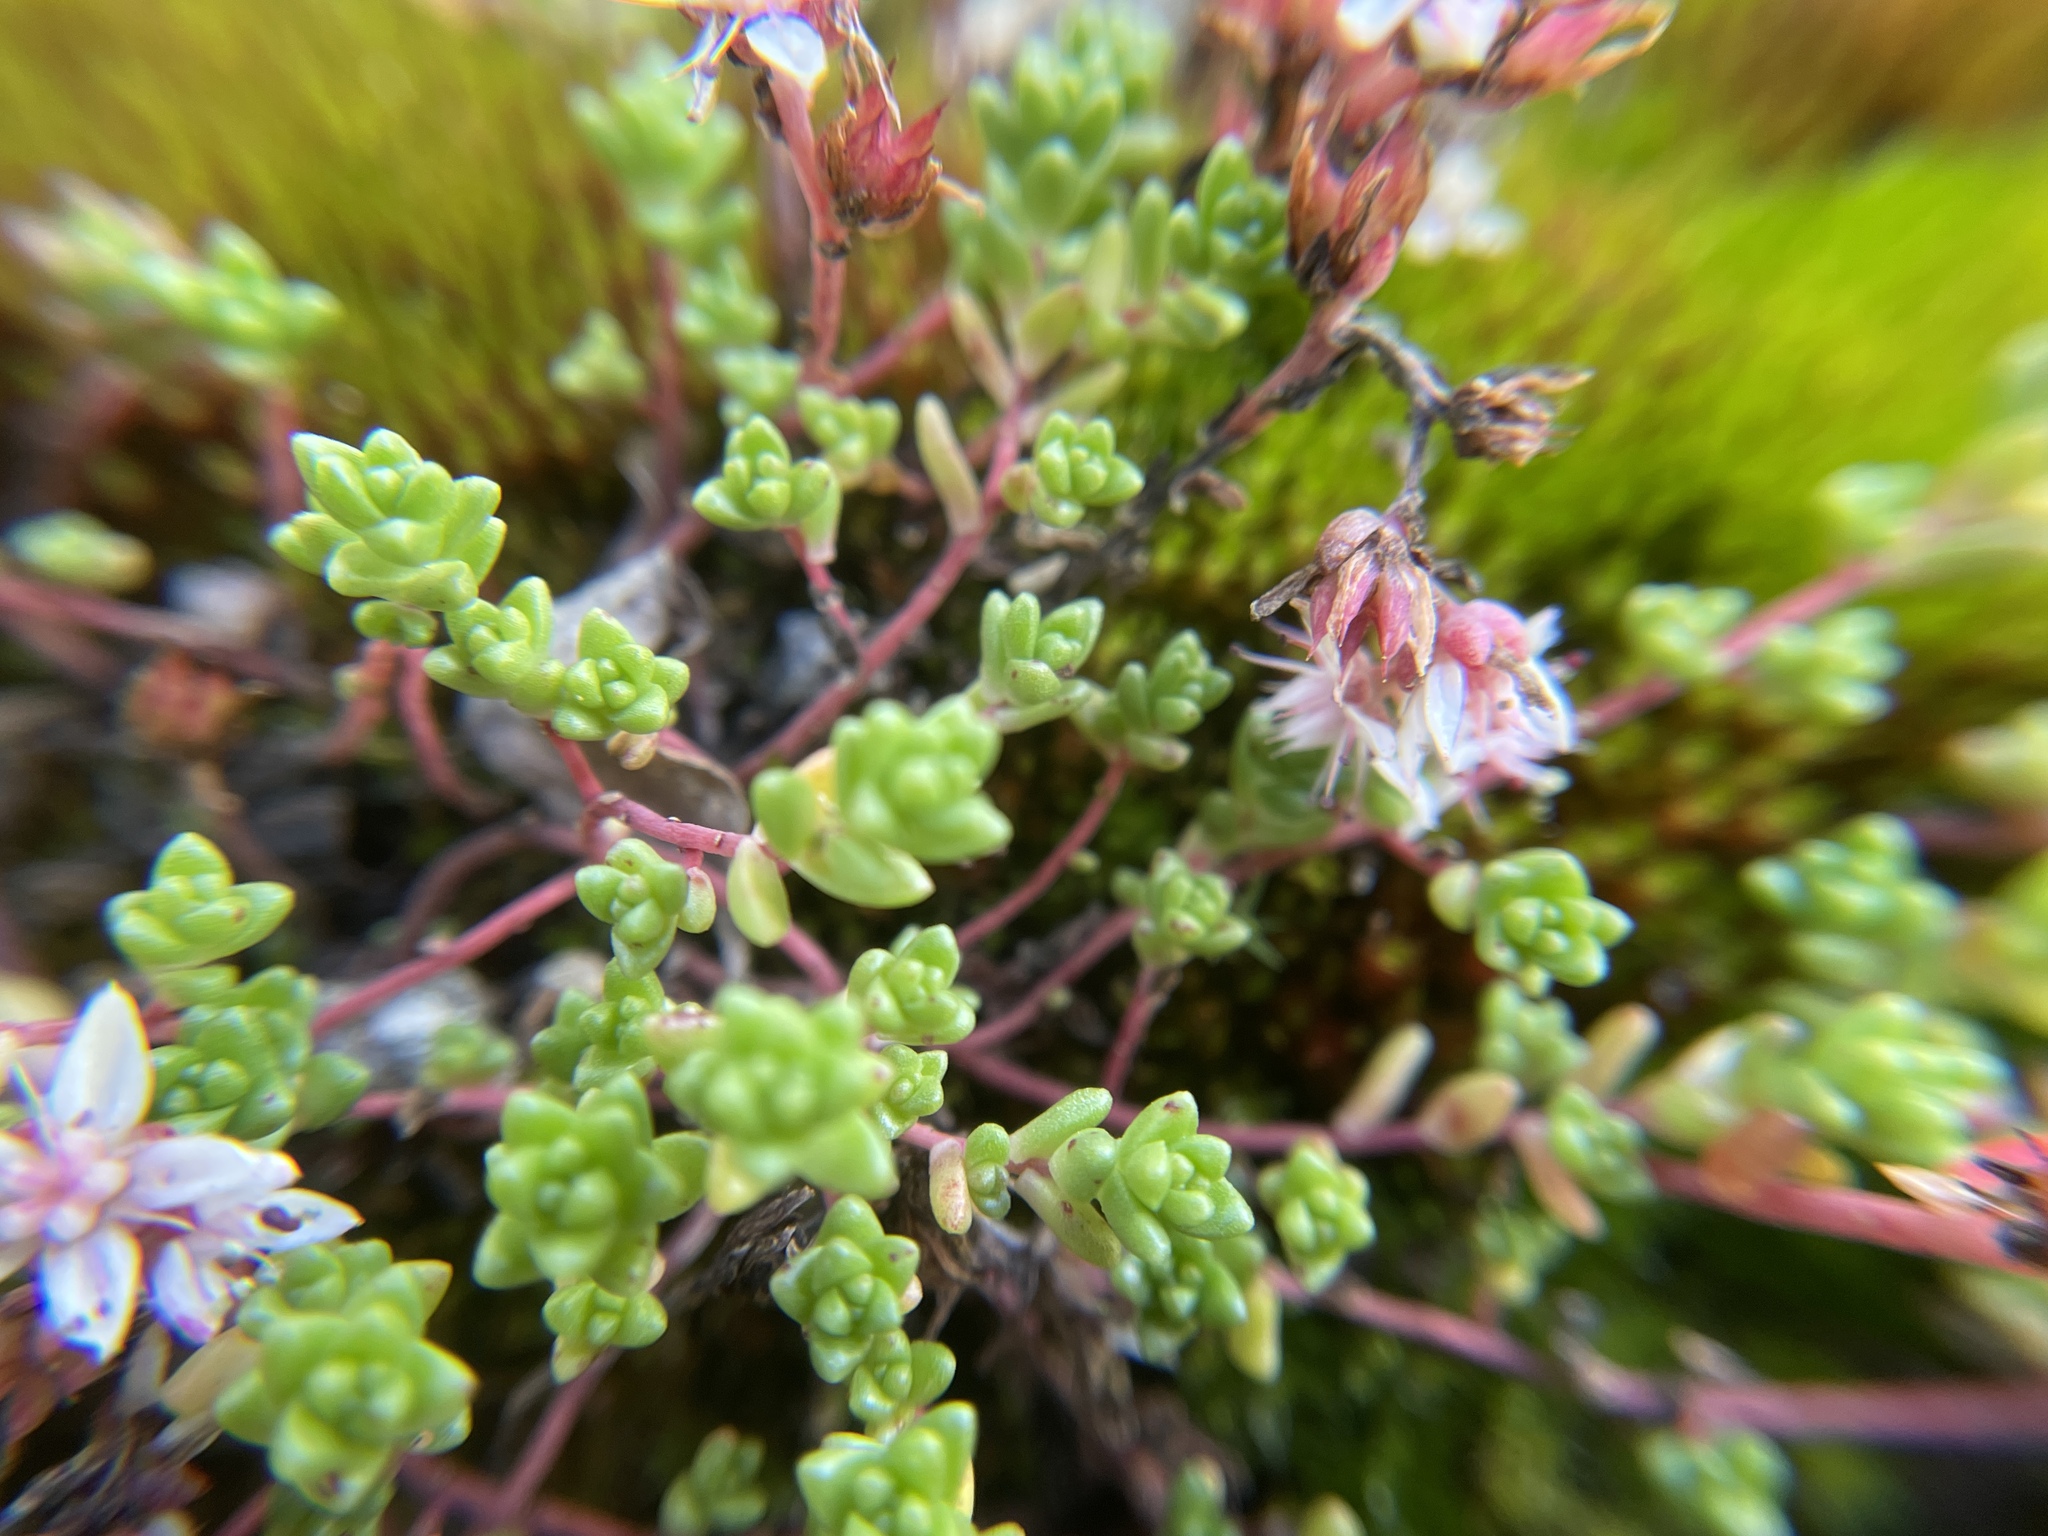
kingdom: Plantae
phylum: Tracheophyta
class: Magnoliopsida
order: Saxifragales
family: Crassulaceae
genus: Sedum
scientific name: Sedum anglicum
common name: English stonecrop
